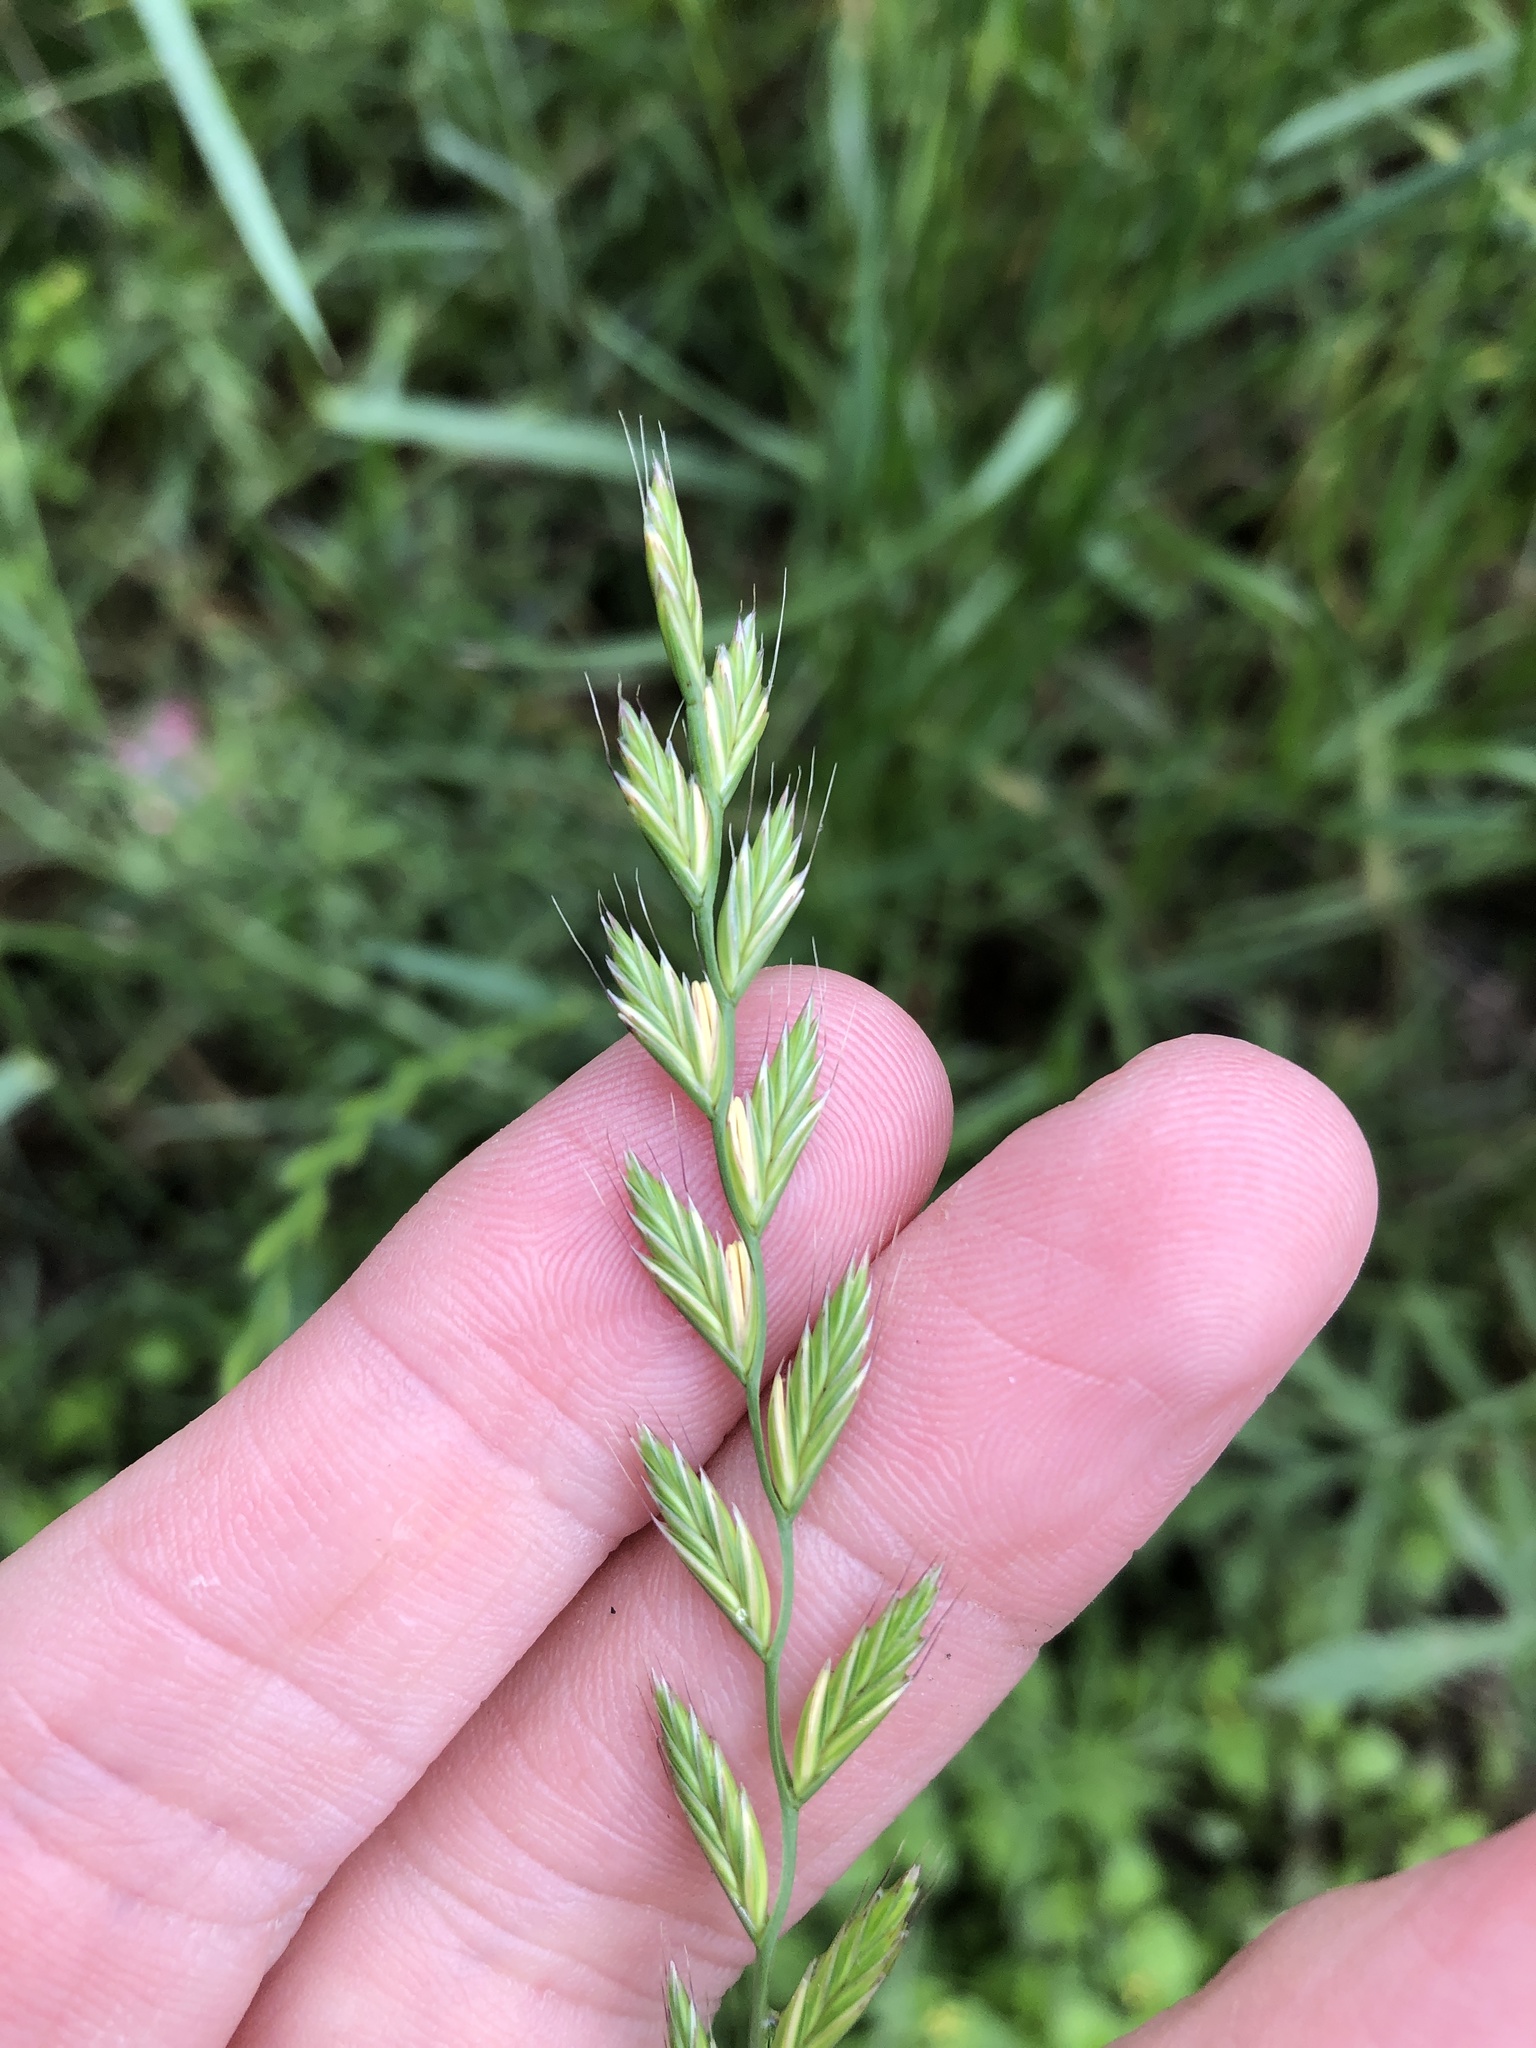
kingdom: Plantae
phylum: Tracheophyta
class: Liliopsida
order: Poales
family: Poaceae
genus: Lolium
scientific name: Lolium perenne
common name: Perennial ryegrass
